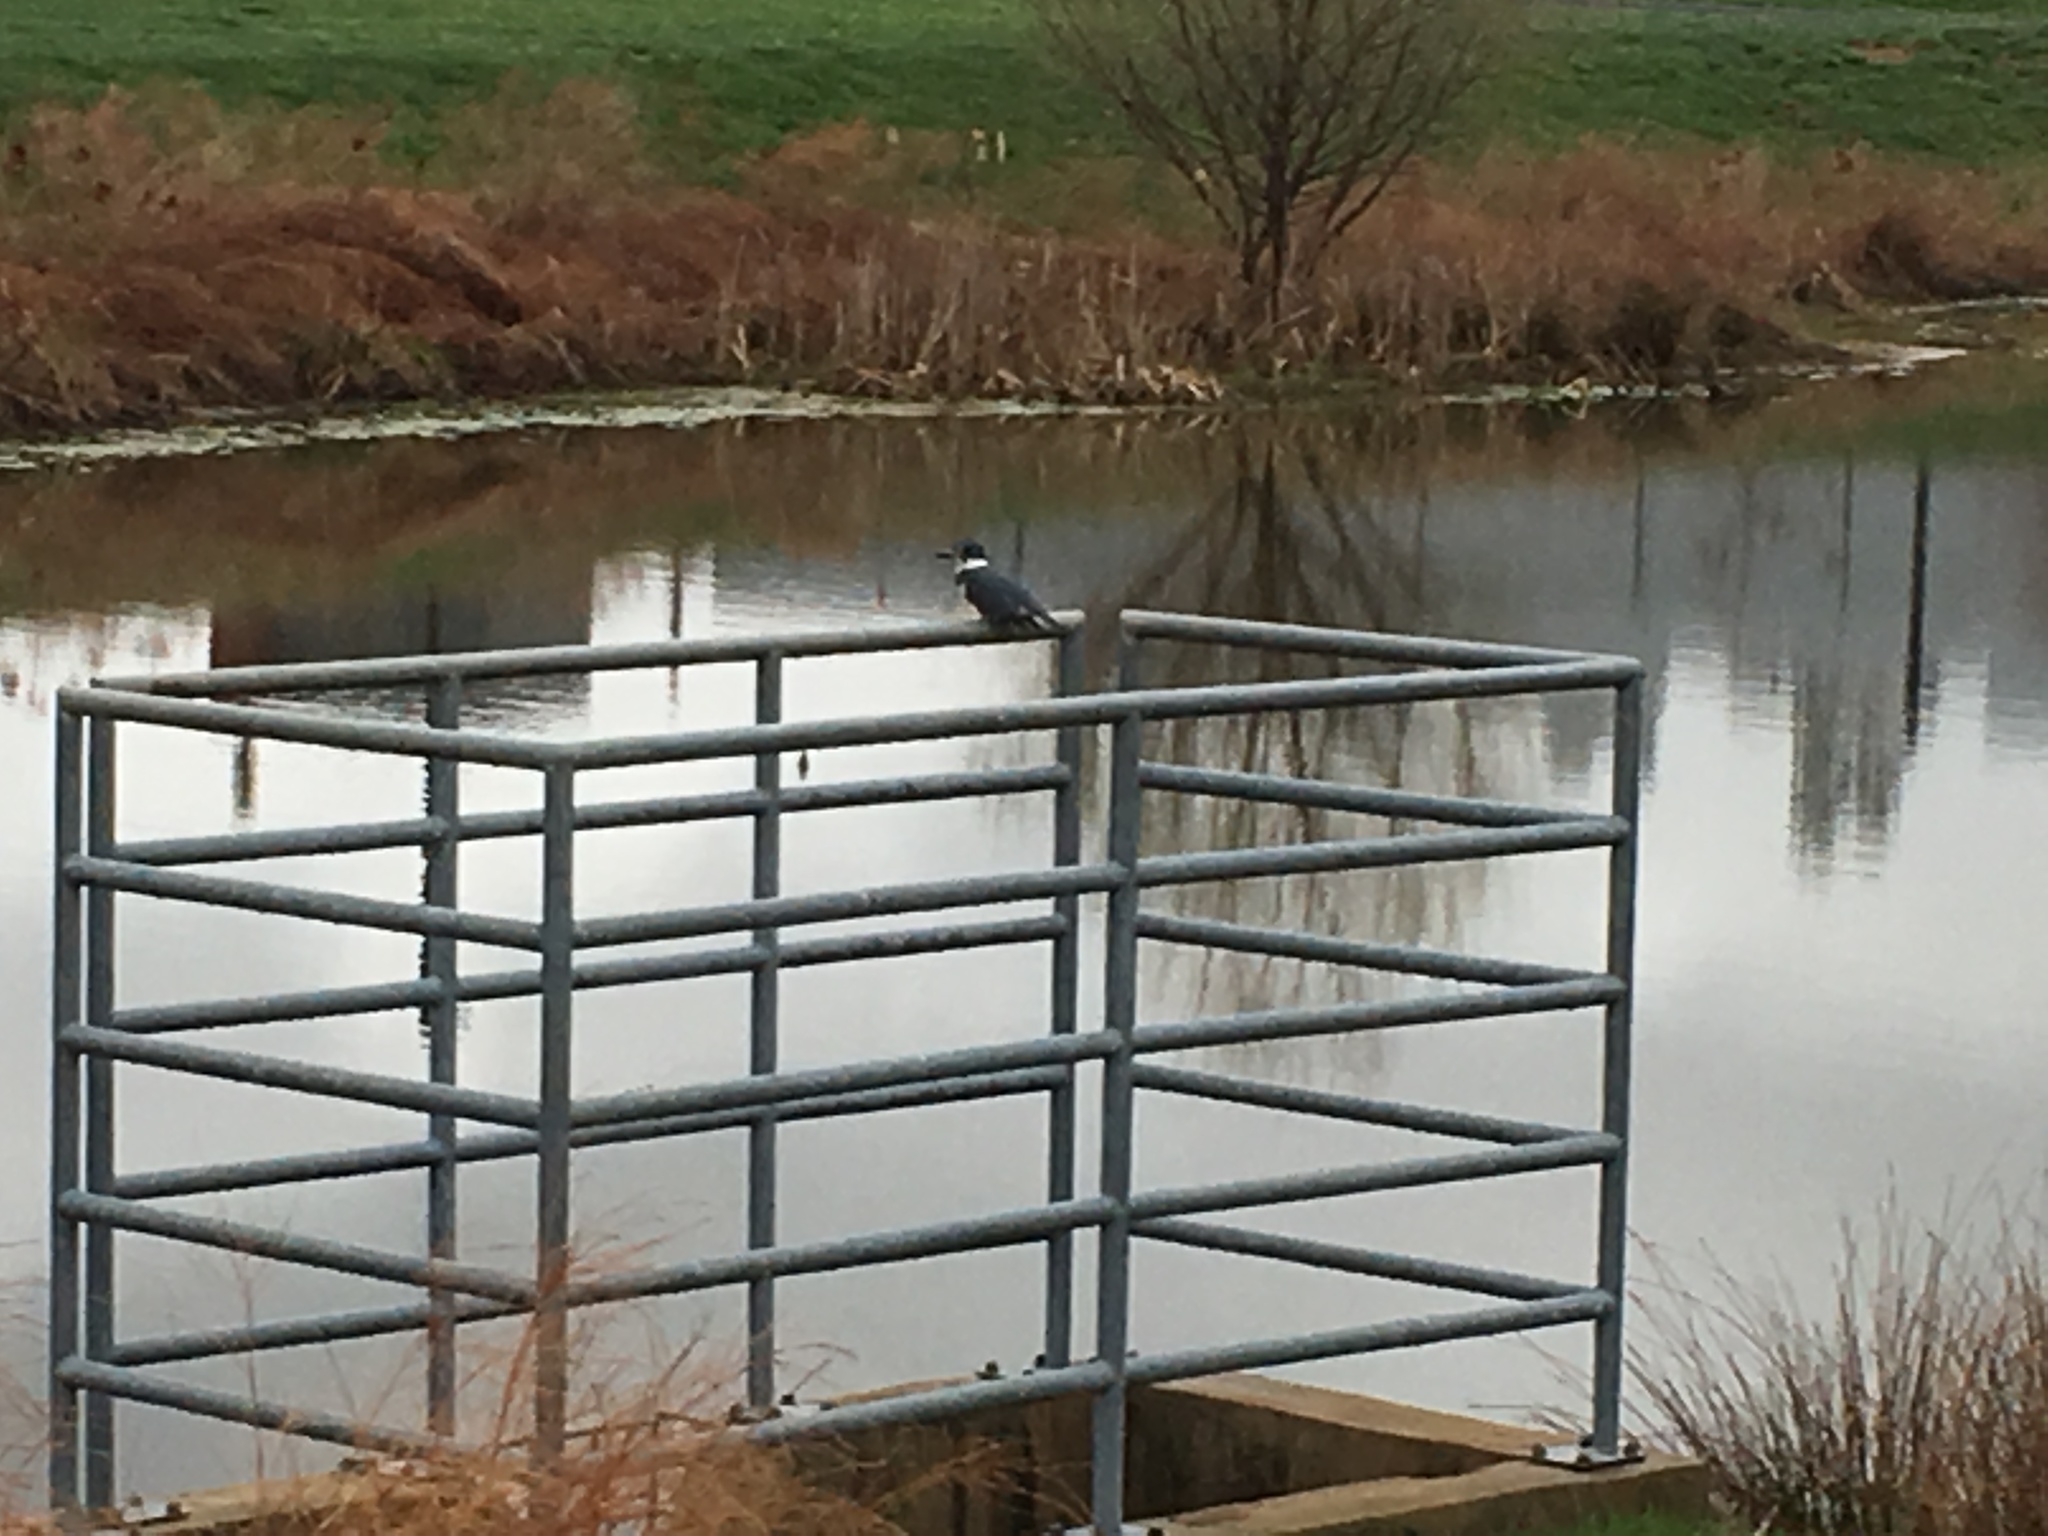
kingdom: Animalia
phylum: Chordata
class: Aves
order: Coraciiformes
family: Alcedinidae
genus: Megaceryle
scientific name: Megaceryle alcyon
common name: Belted kingfisher
